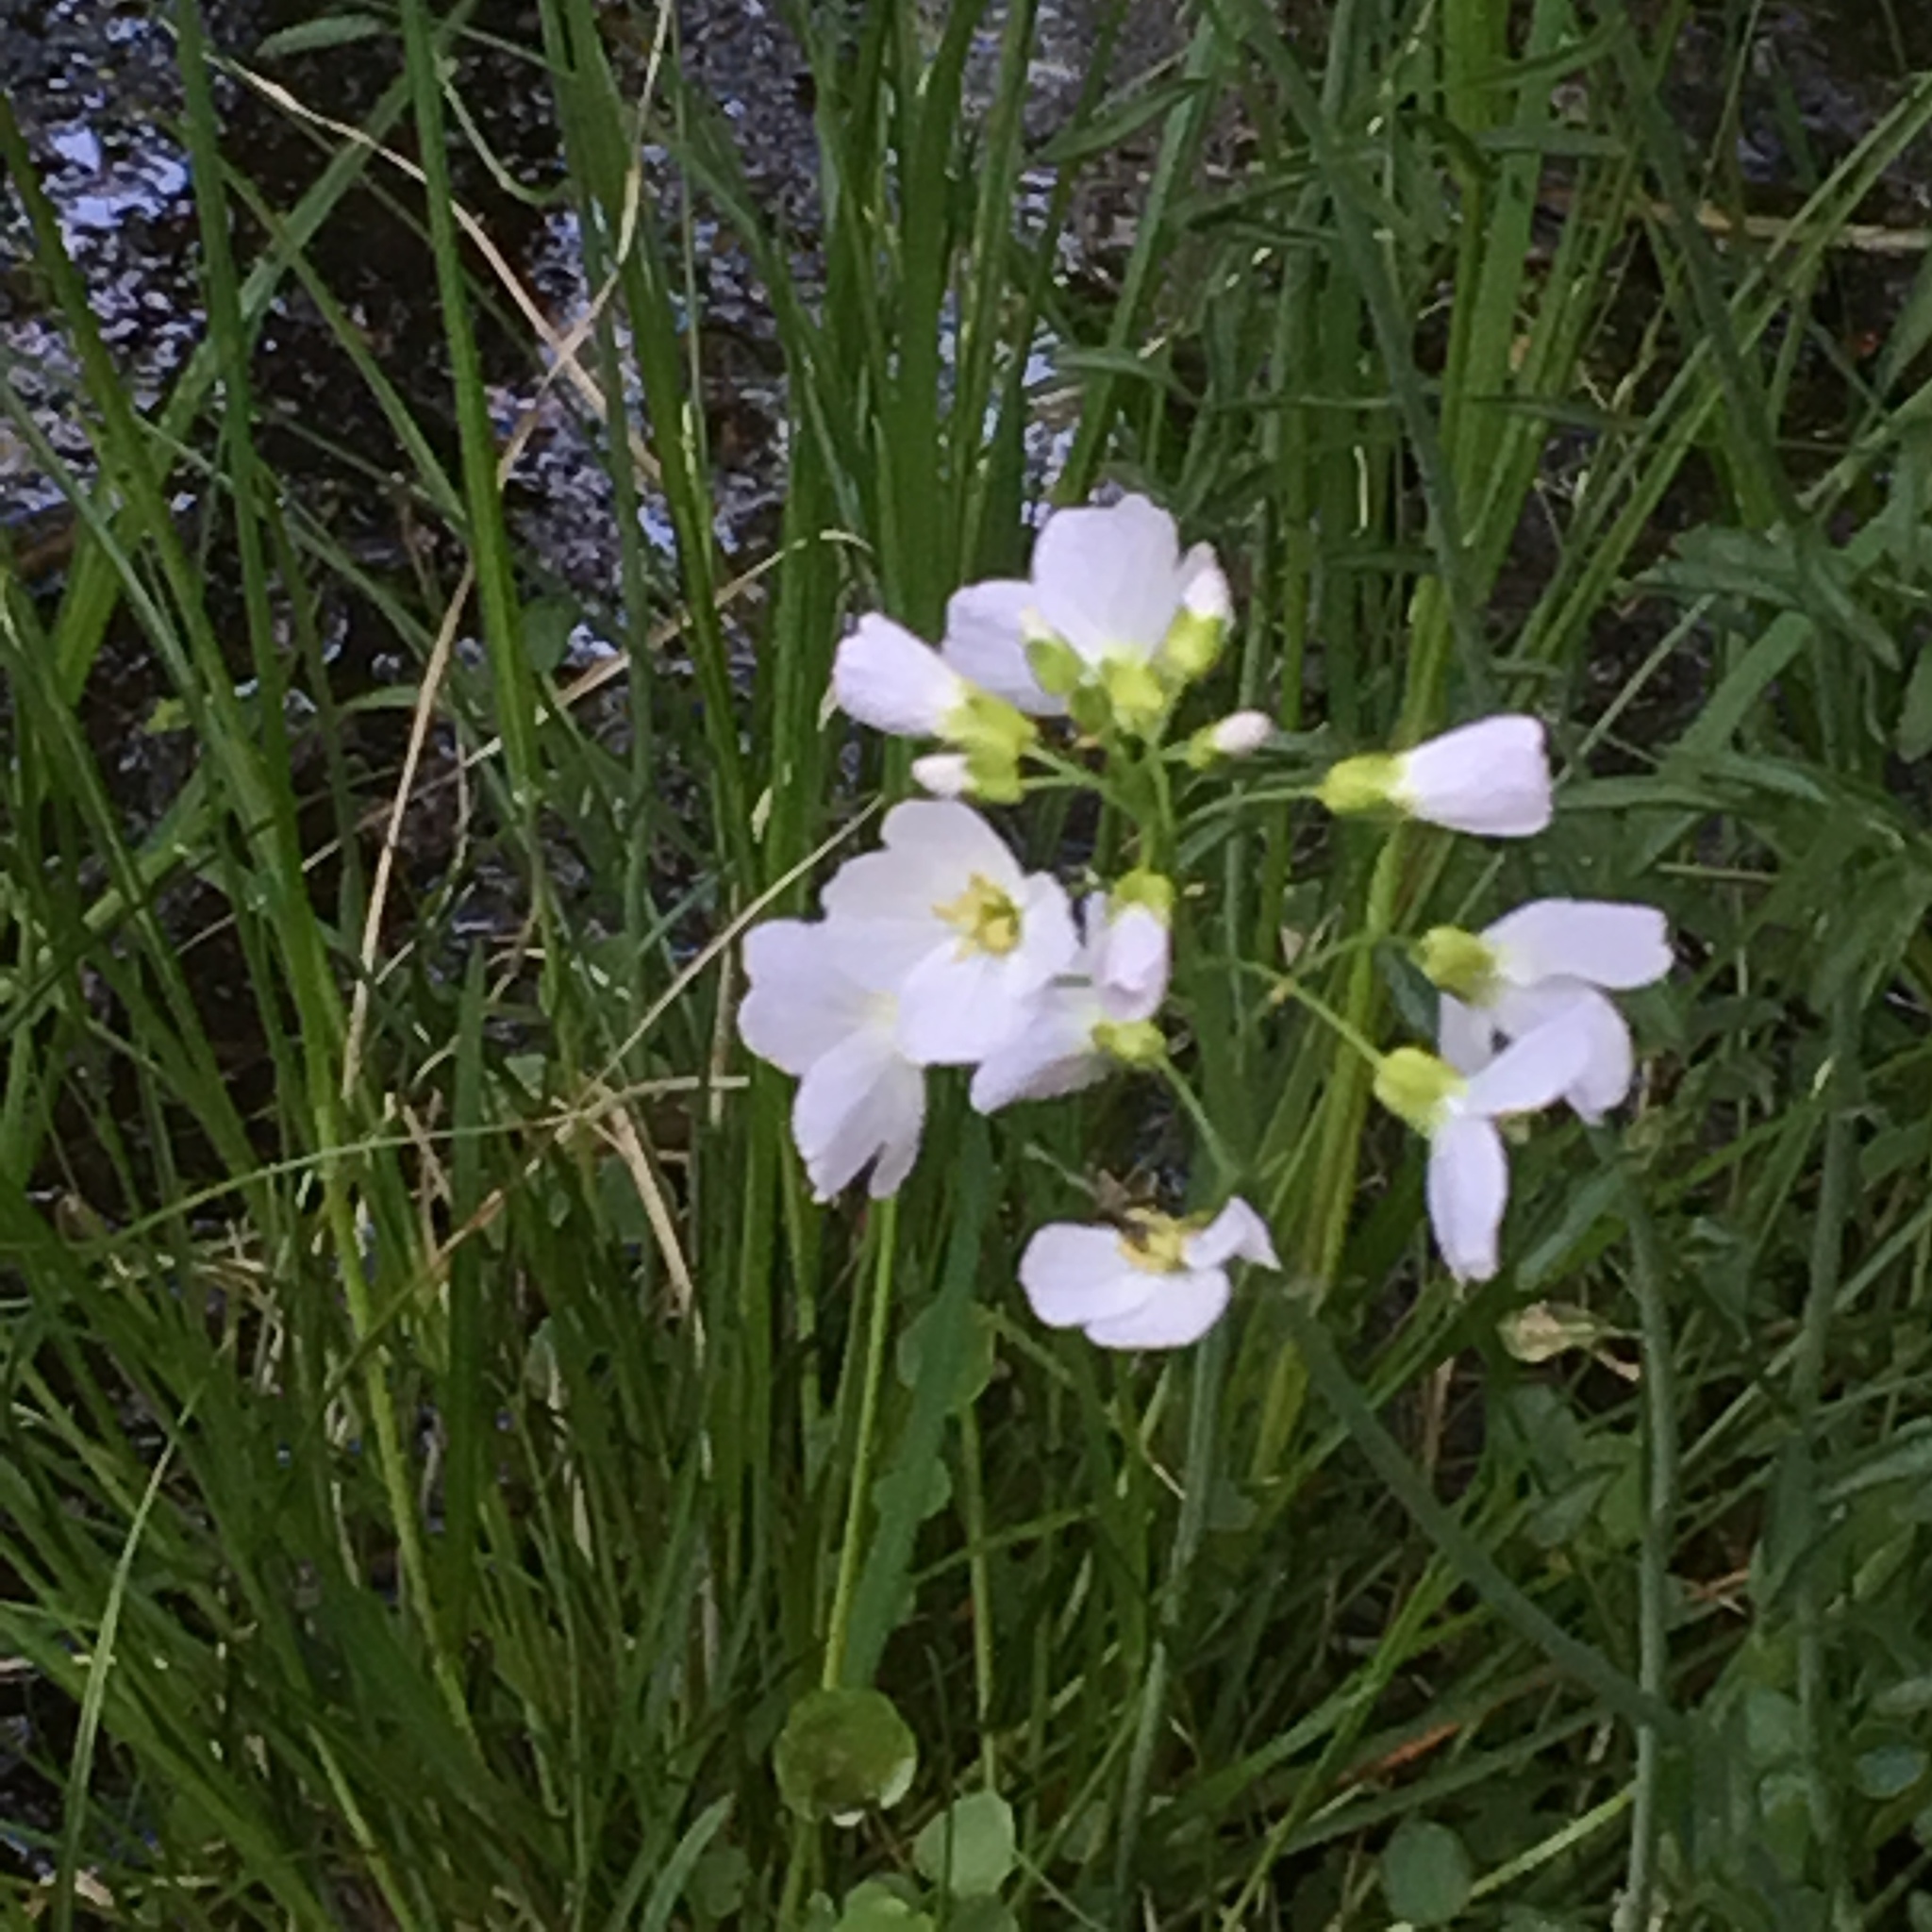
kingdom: Plantae
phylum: Tracheophyta
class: Magnoliopsida
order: Brassicales
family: Brassicaceae
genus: Cardamine
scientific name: Cardamine pratensis
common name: Cuckoo flower
